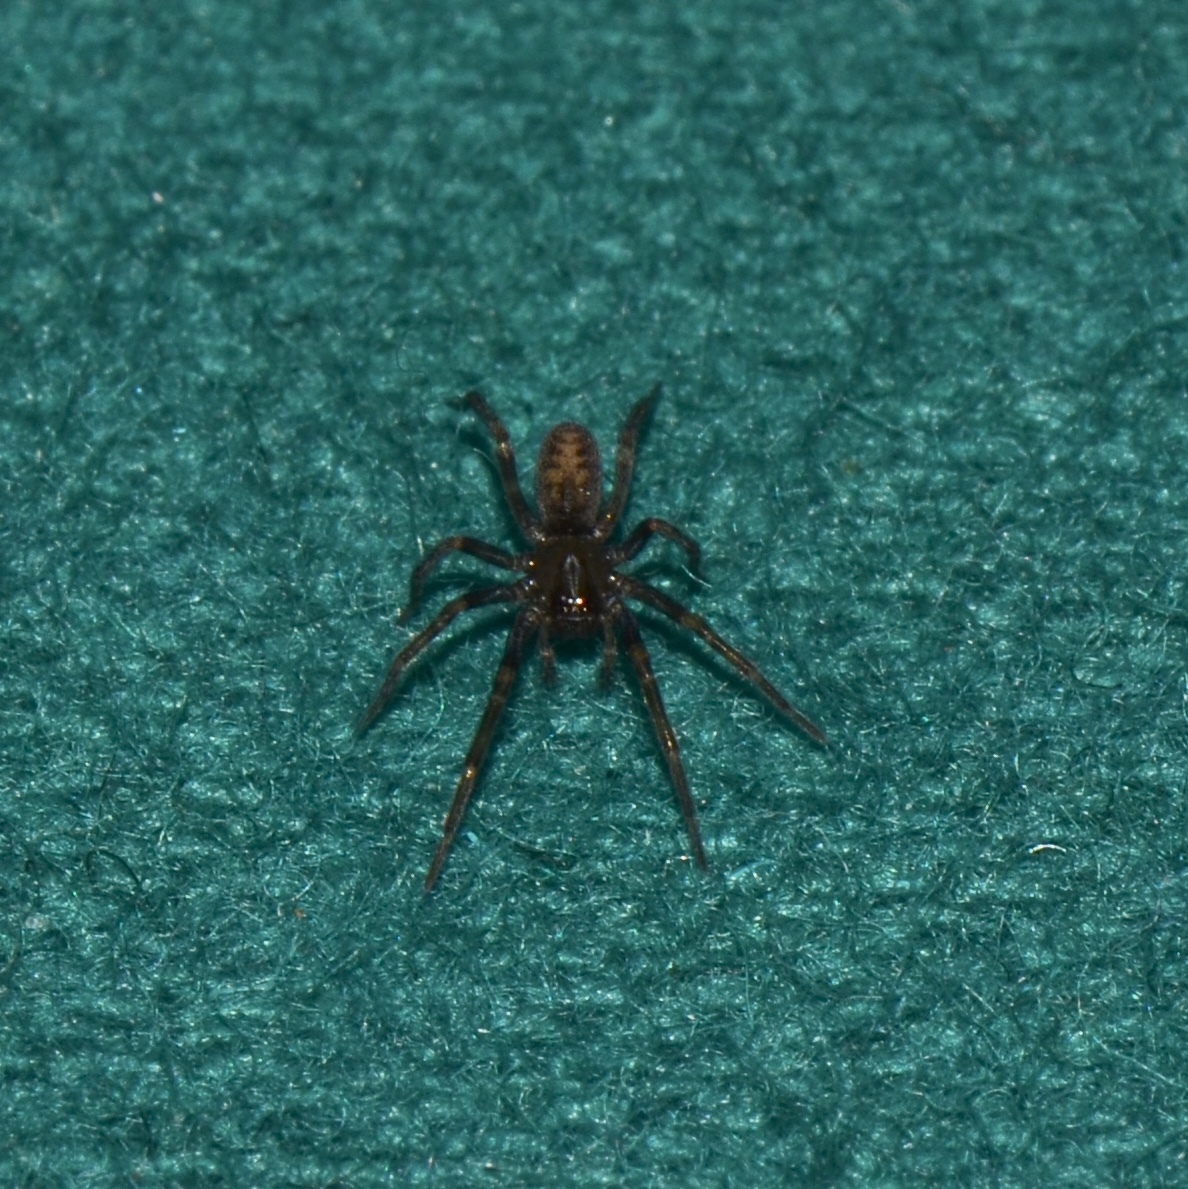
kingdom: Animalia
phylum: Arthropoda
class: Arachnida
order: Araneae
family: Desidae
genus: Metaltella
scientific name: Metaltella simoni
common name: Cribellate spider
